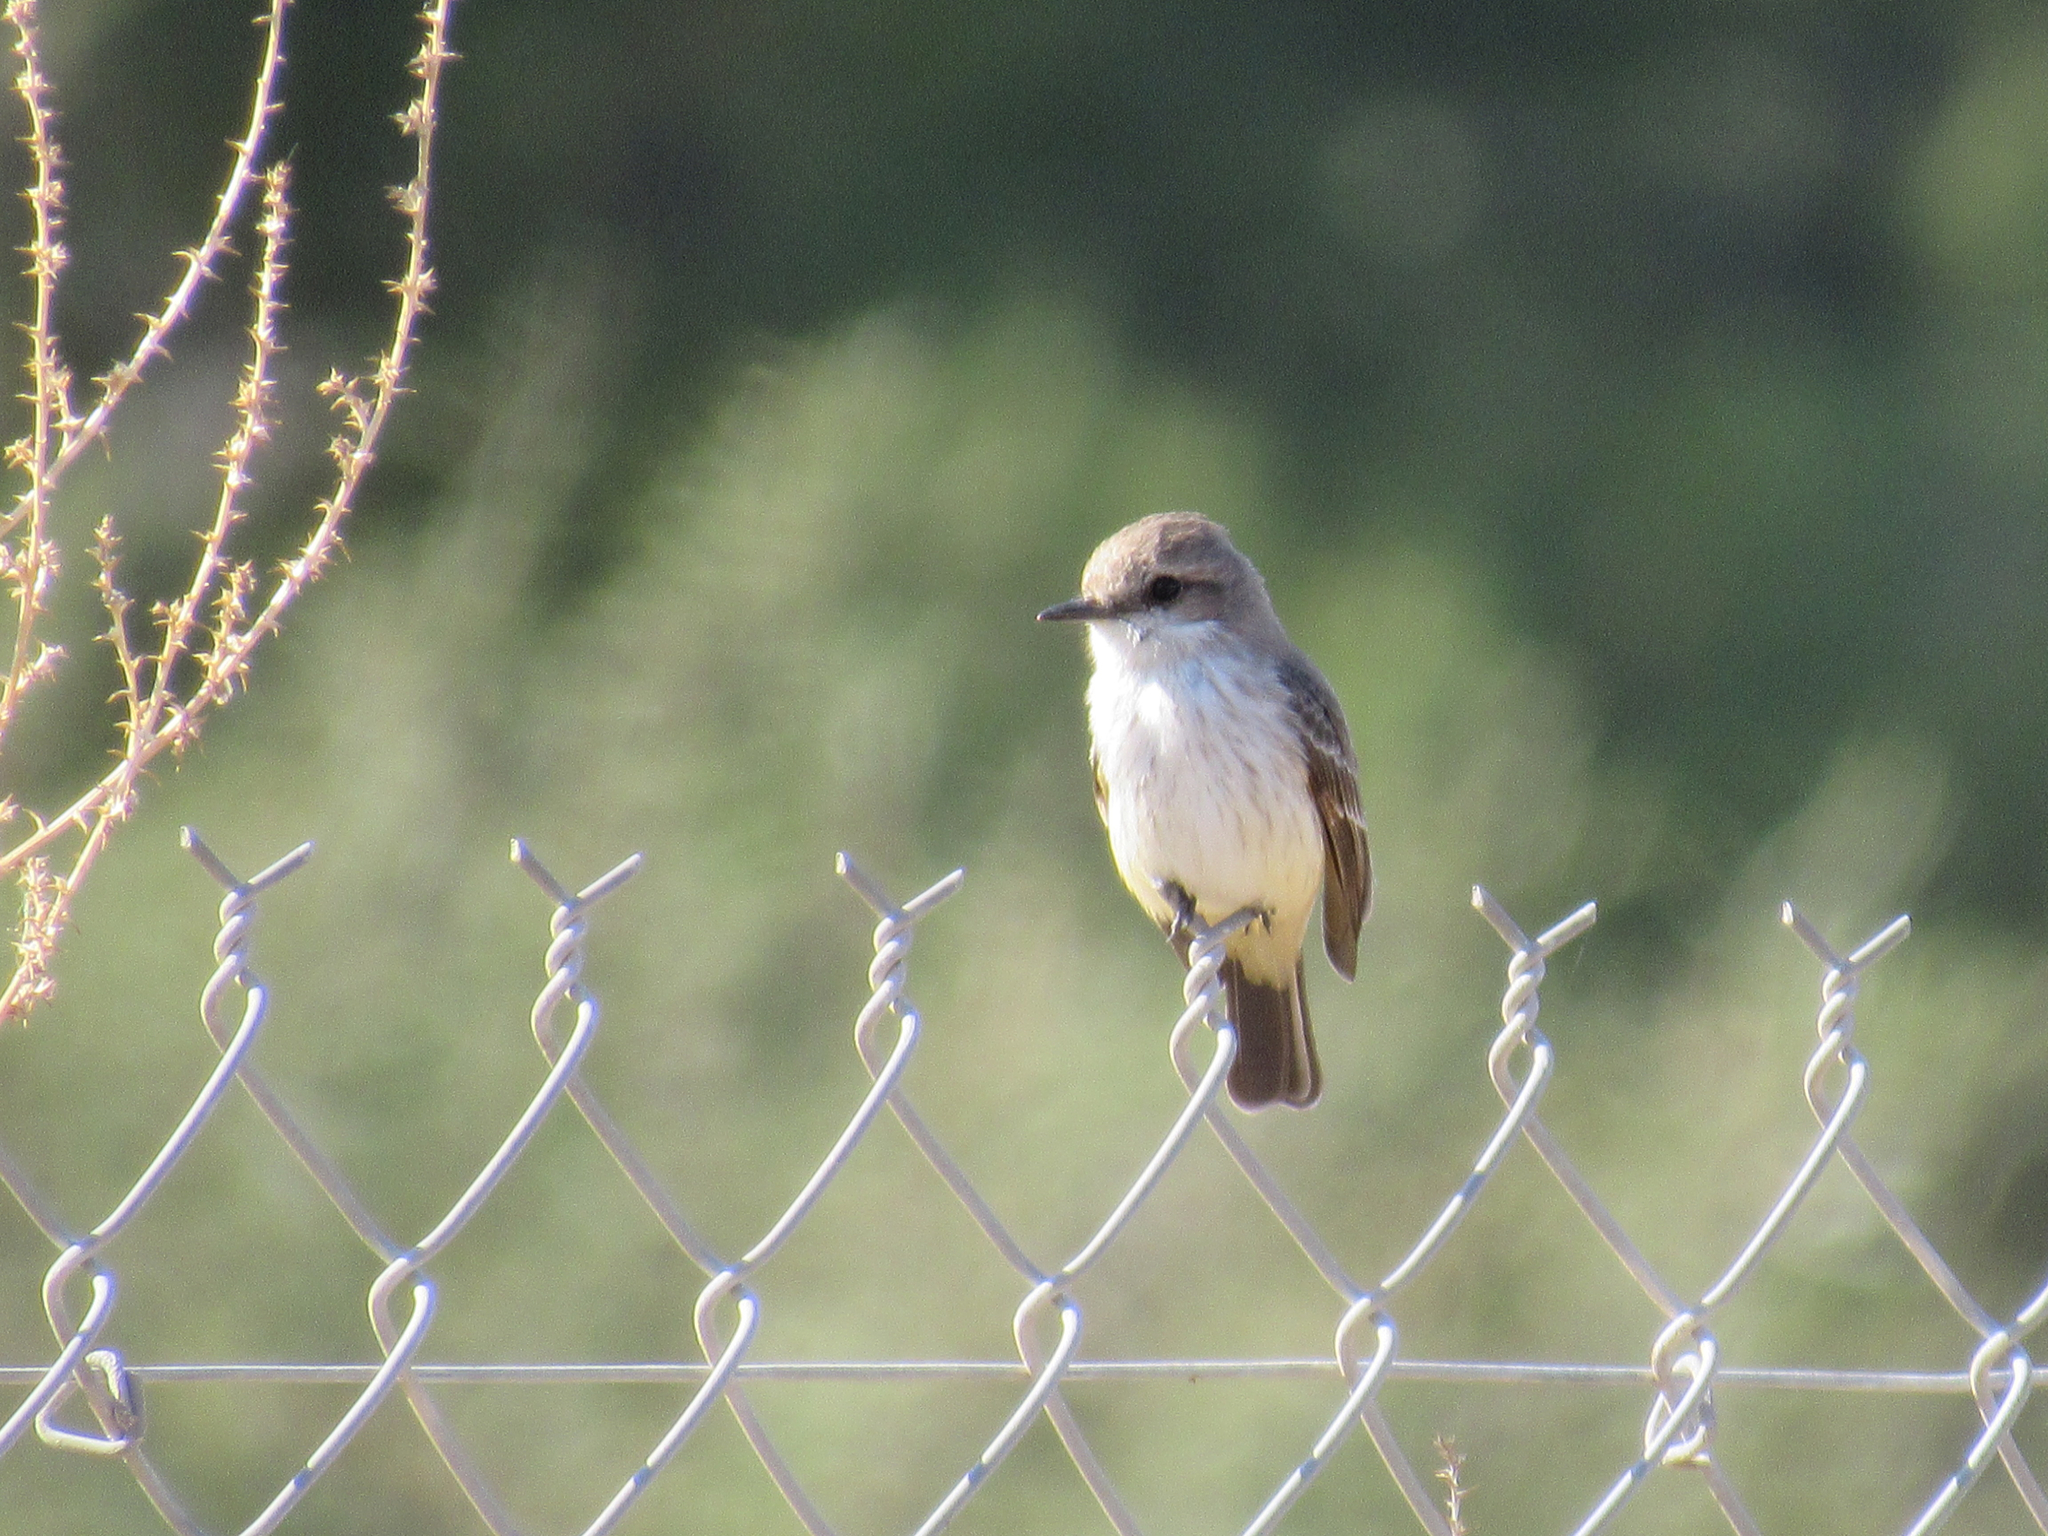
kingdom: Animalia
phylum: Chordata
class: Aves
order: Passeriformes
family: Tyrannidae
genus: Pyrocephalus
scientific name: Pyrocephalus rubinus
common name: Vermilion flycatcher
